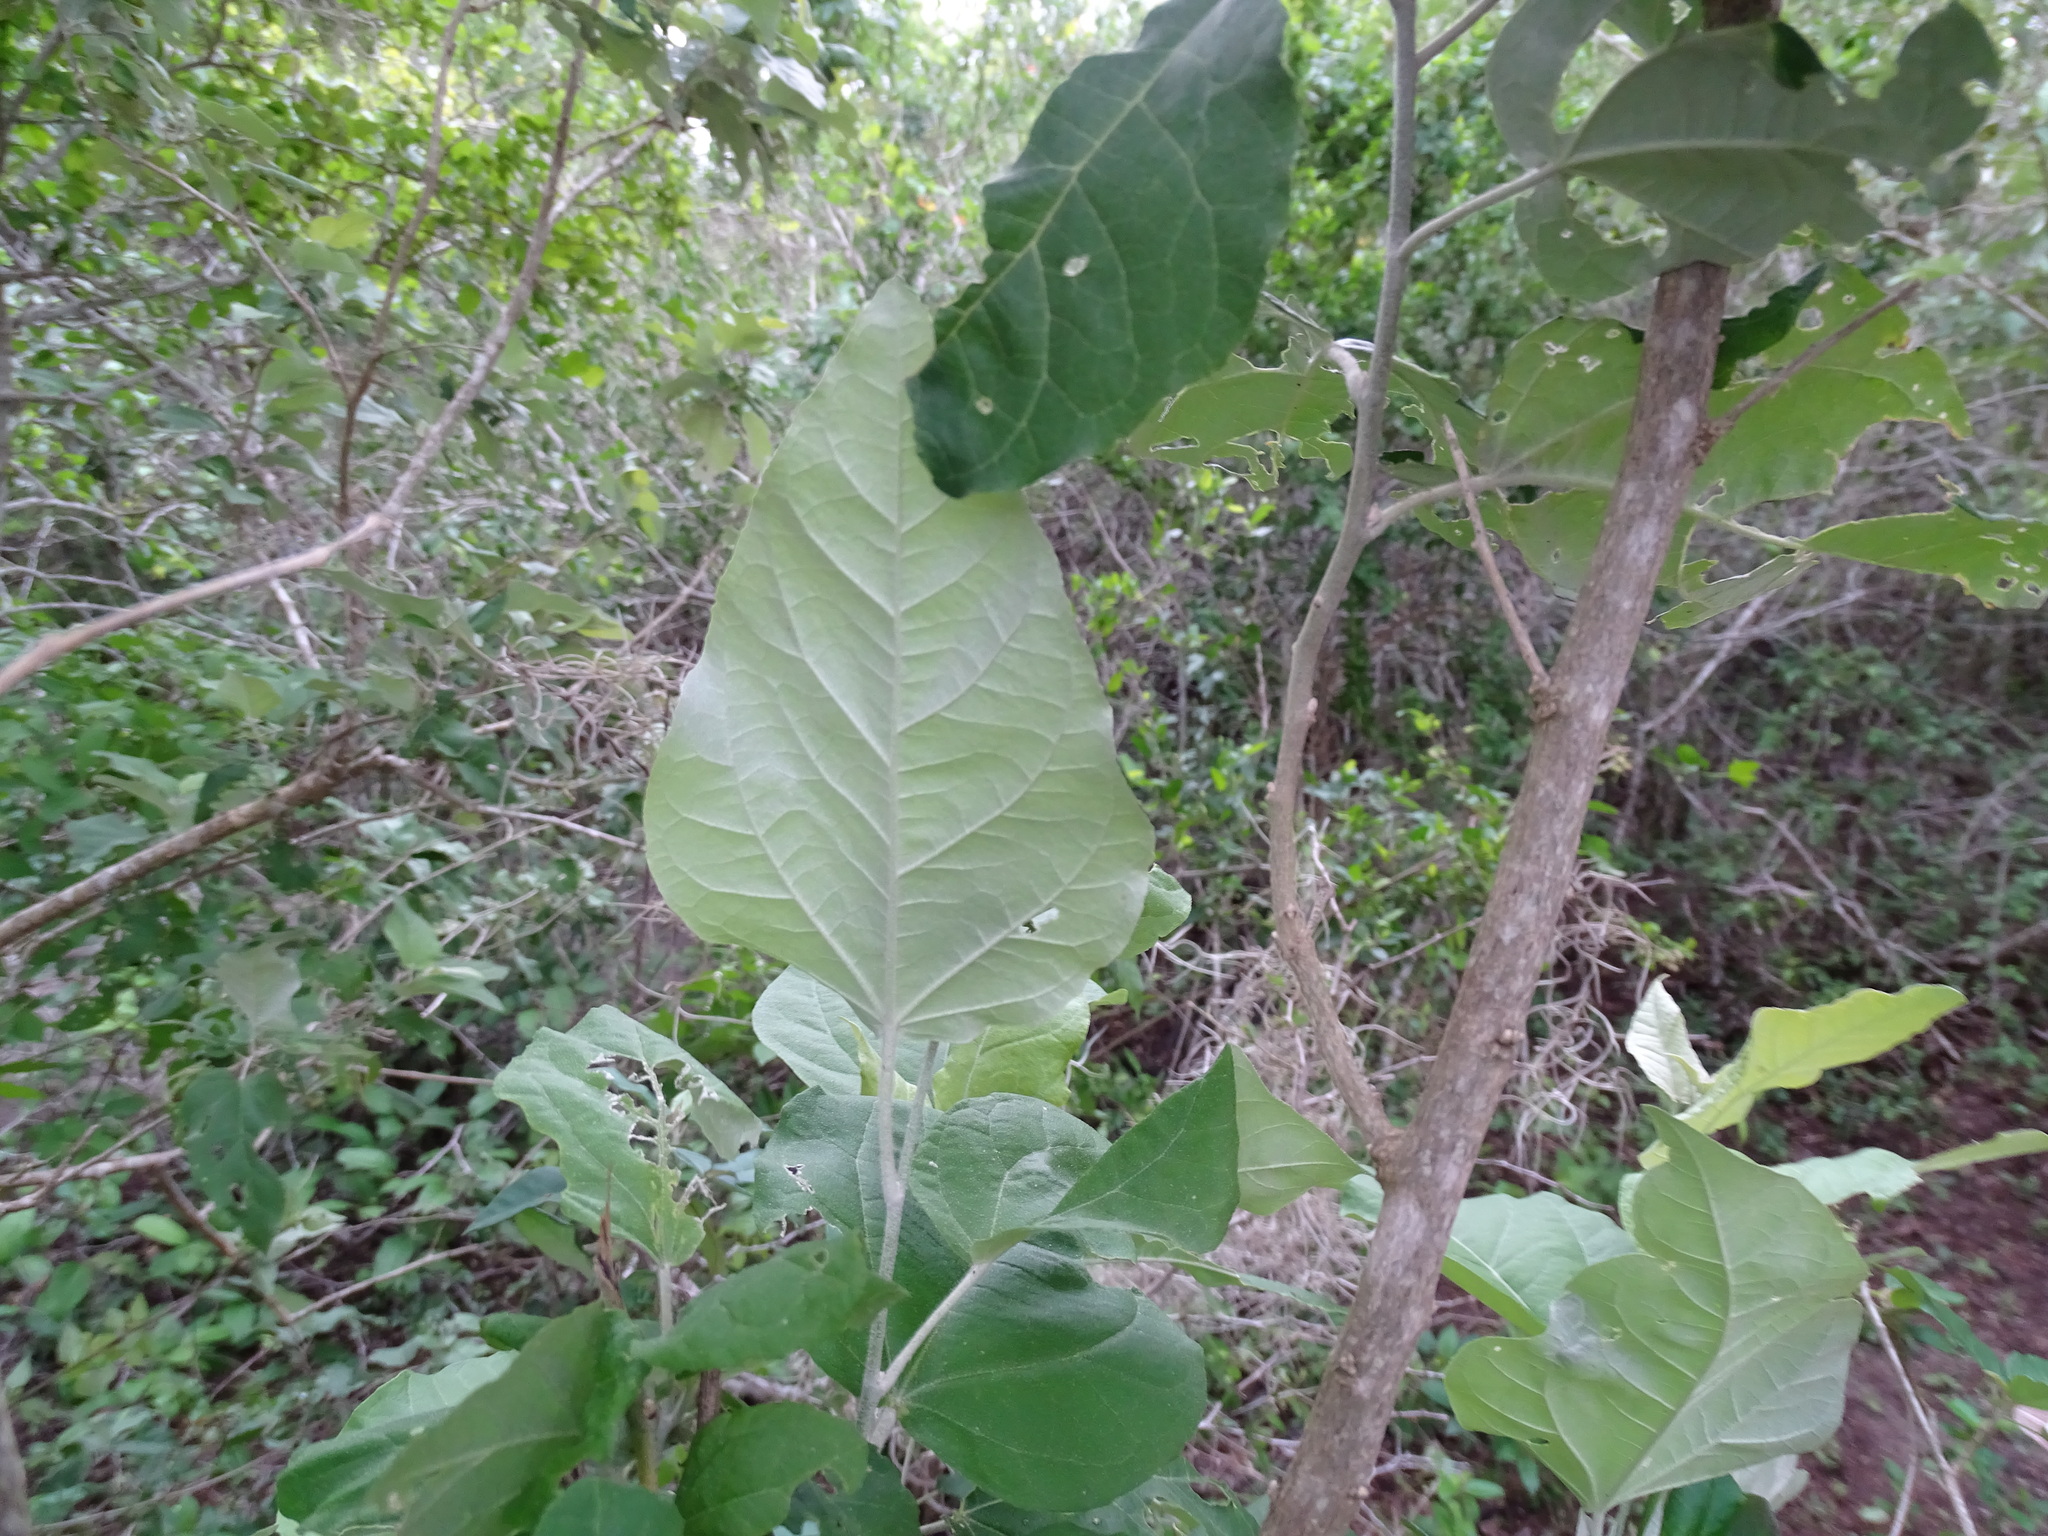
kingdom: Plantae
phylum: Tracheophyta
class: Magnoliopsida
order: Malpighiales
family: Euphorbiaceae
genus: Croton
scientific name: Croton watsonii
